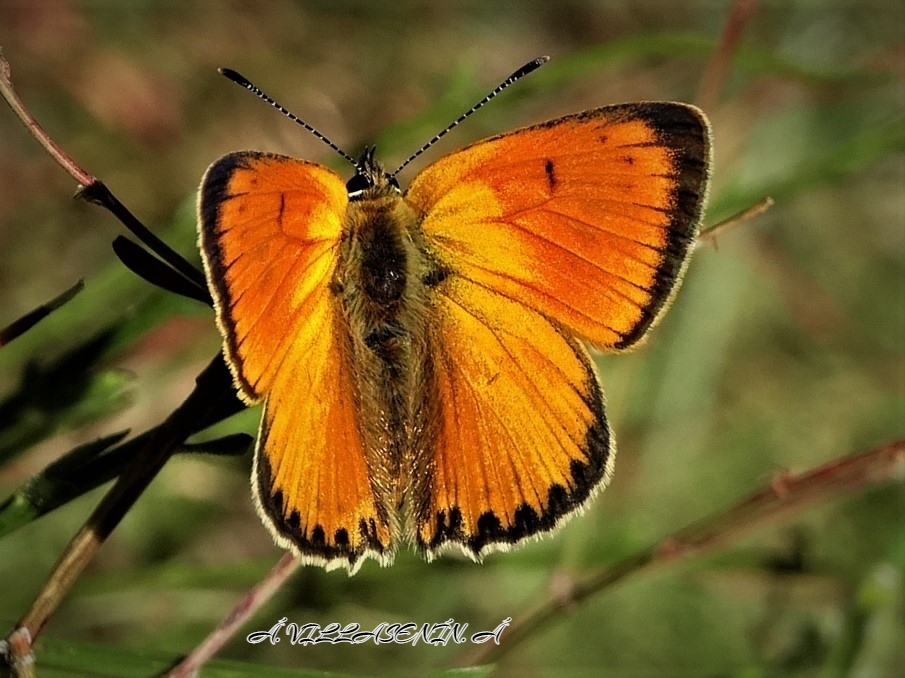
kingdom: Animalia
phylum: Arthropoda
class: Insecta
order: Lepidoptera
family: Lycaenidae
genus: Lycaena
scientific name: Lycaena virgaureae
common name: Scarce copper
